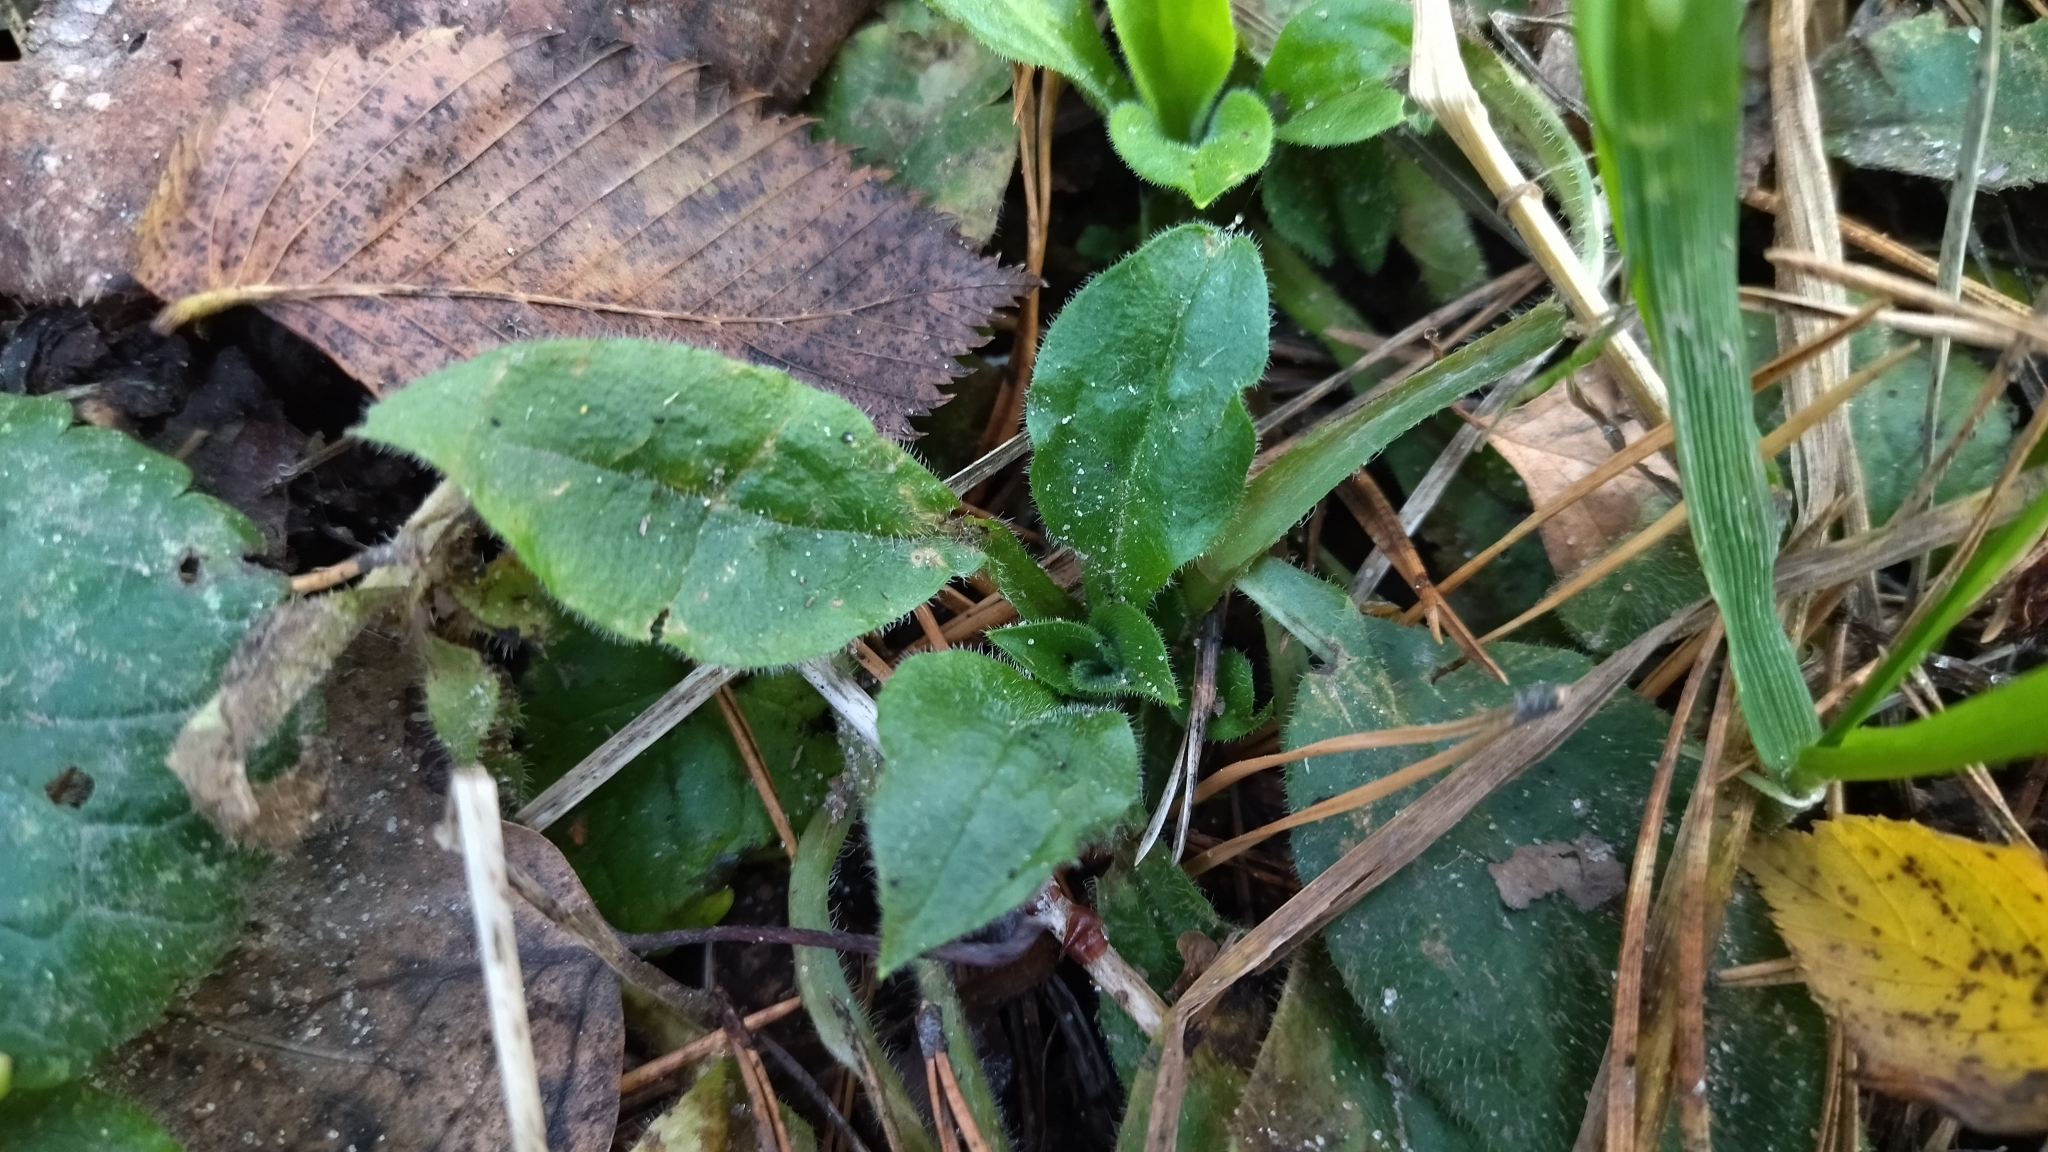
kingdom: Plantae
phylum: Tracheophyta
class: Magnoliopsida
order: Caryophyllales
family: Caryophyllaceae
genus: Silene
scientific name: Silene dioica
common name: Red campion
